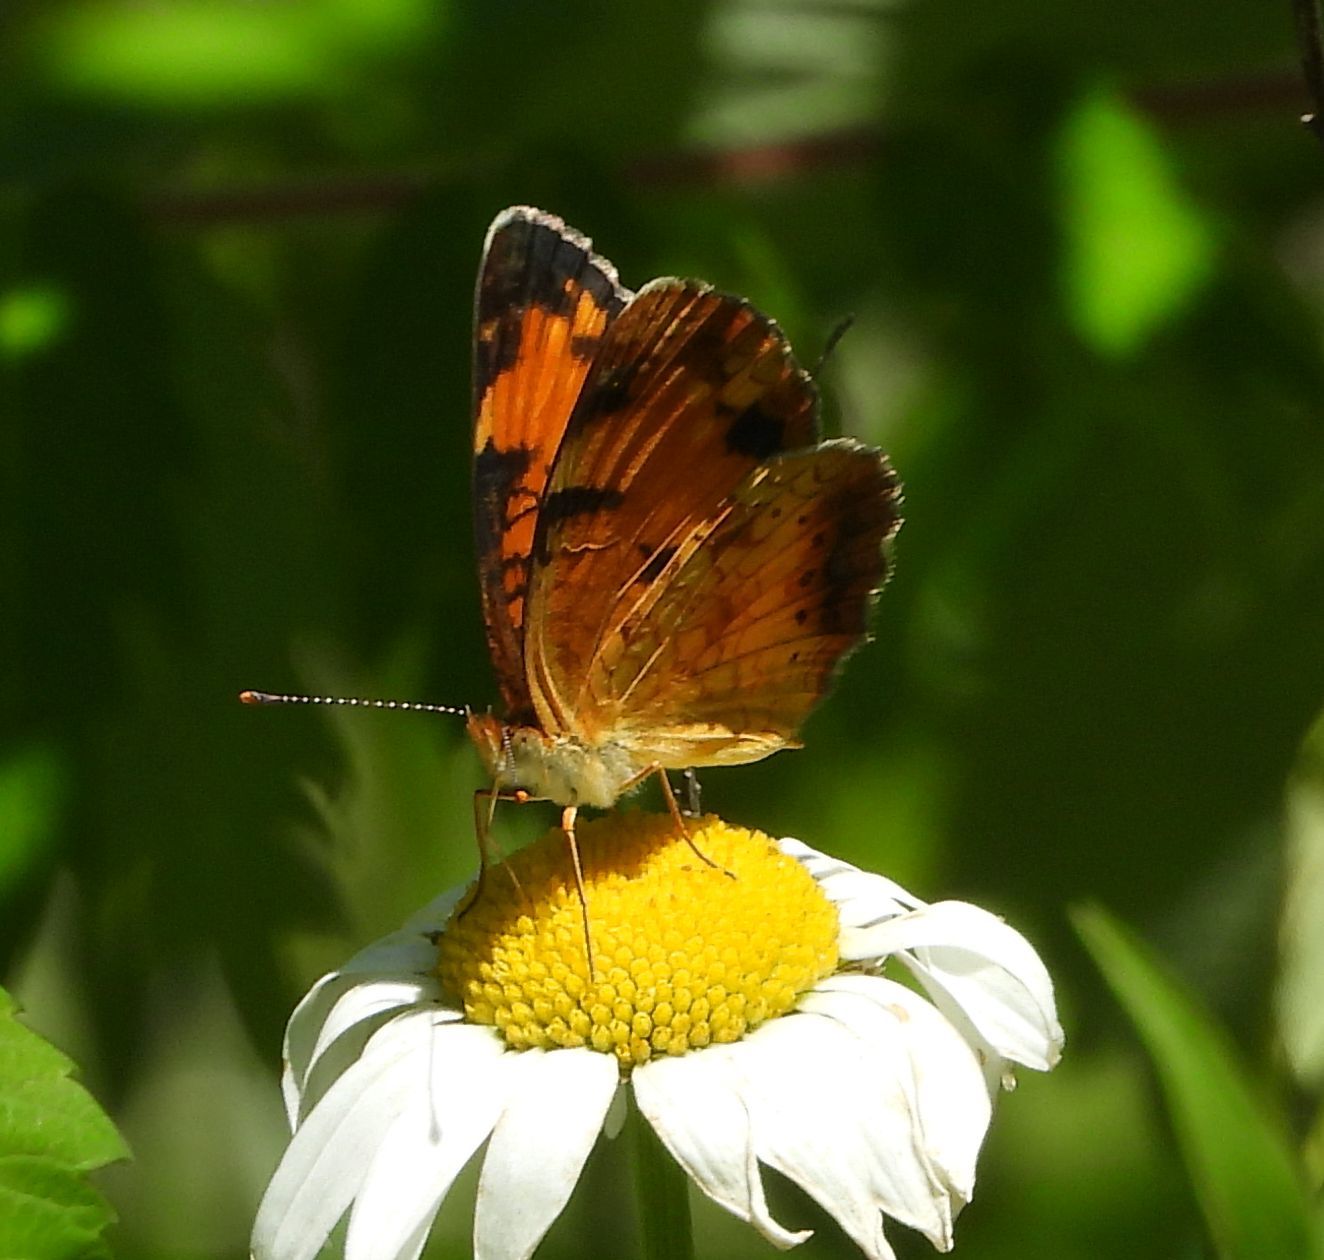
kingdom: Animalia
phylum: Arthropoda
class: Insecta
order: Lepidoptera
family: Nymphalidae
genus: Phyciodes
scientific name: Phyciodes tharos
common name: Pearl crescent
